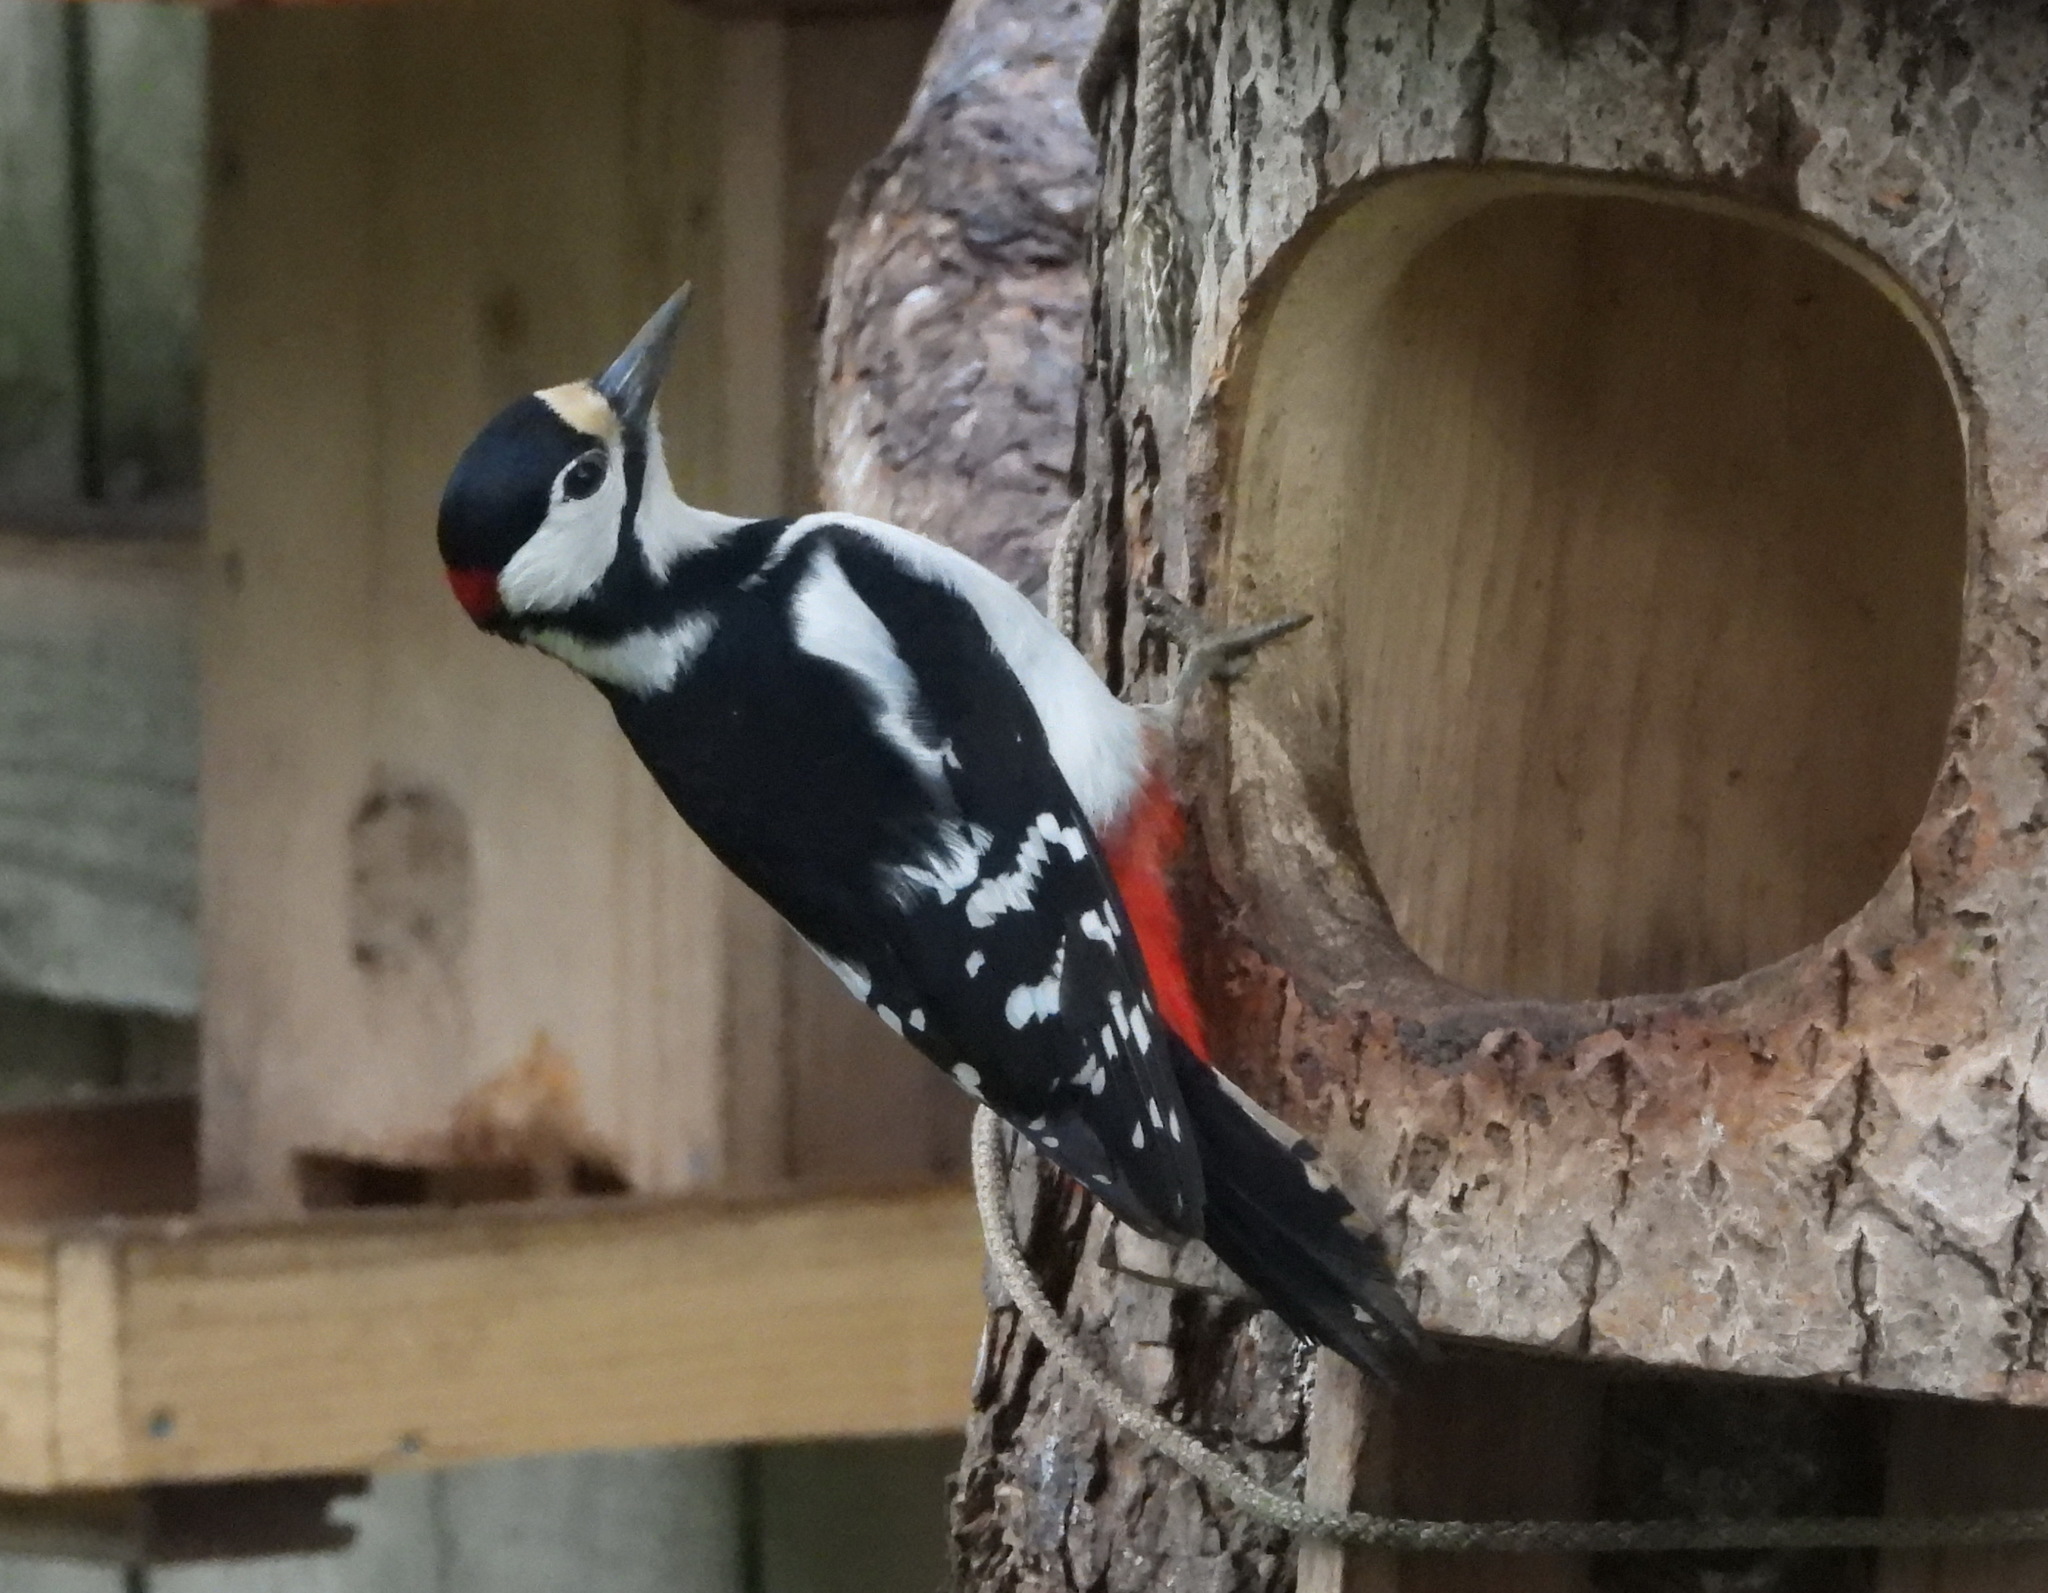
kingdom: Animalia
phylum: Chordata
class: Aves
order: Piciformes
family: Picidae
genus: Dendrocopos
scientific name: Dendrocopos major
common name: Great spotted woodpecker
